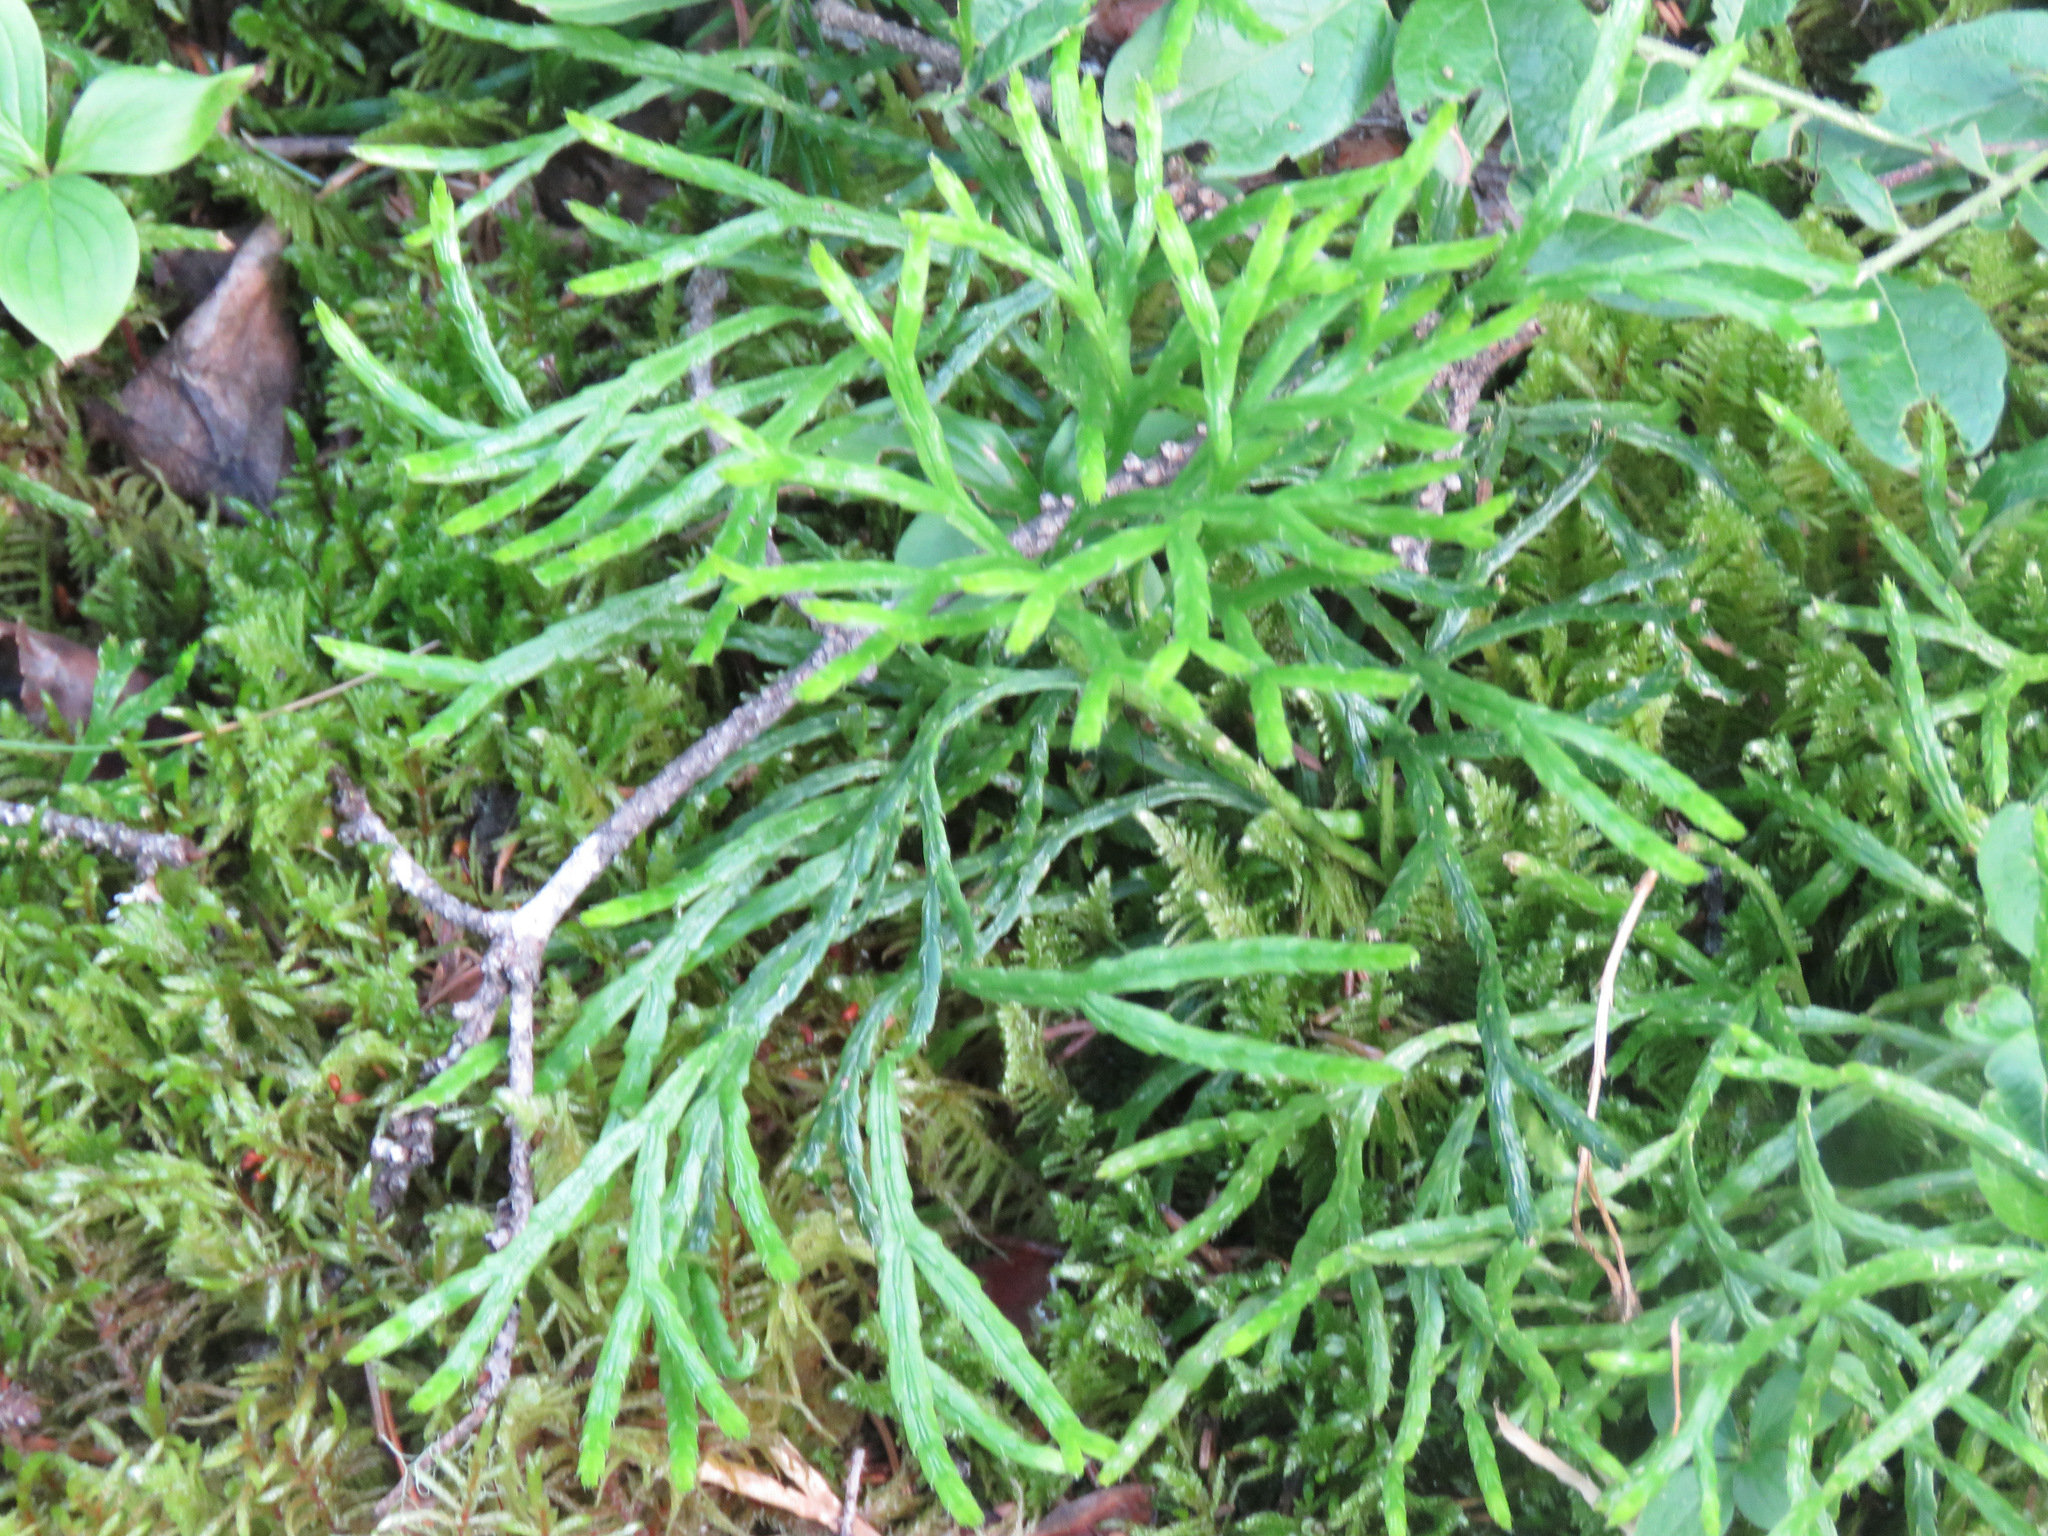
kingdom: Plantae
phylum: Tracheophyta
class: Lycopodiopsida
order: Lycopodiales
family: Lycopodiaceae
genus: Diphasiastrum
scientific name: Diphasiastrum complanatum
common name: Northern running-pine
